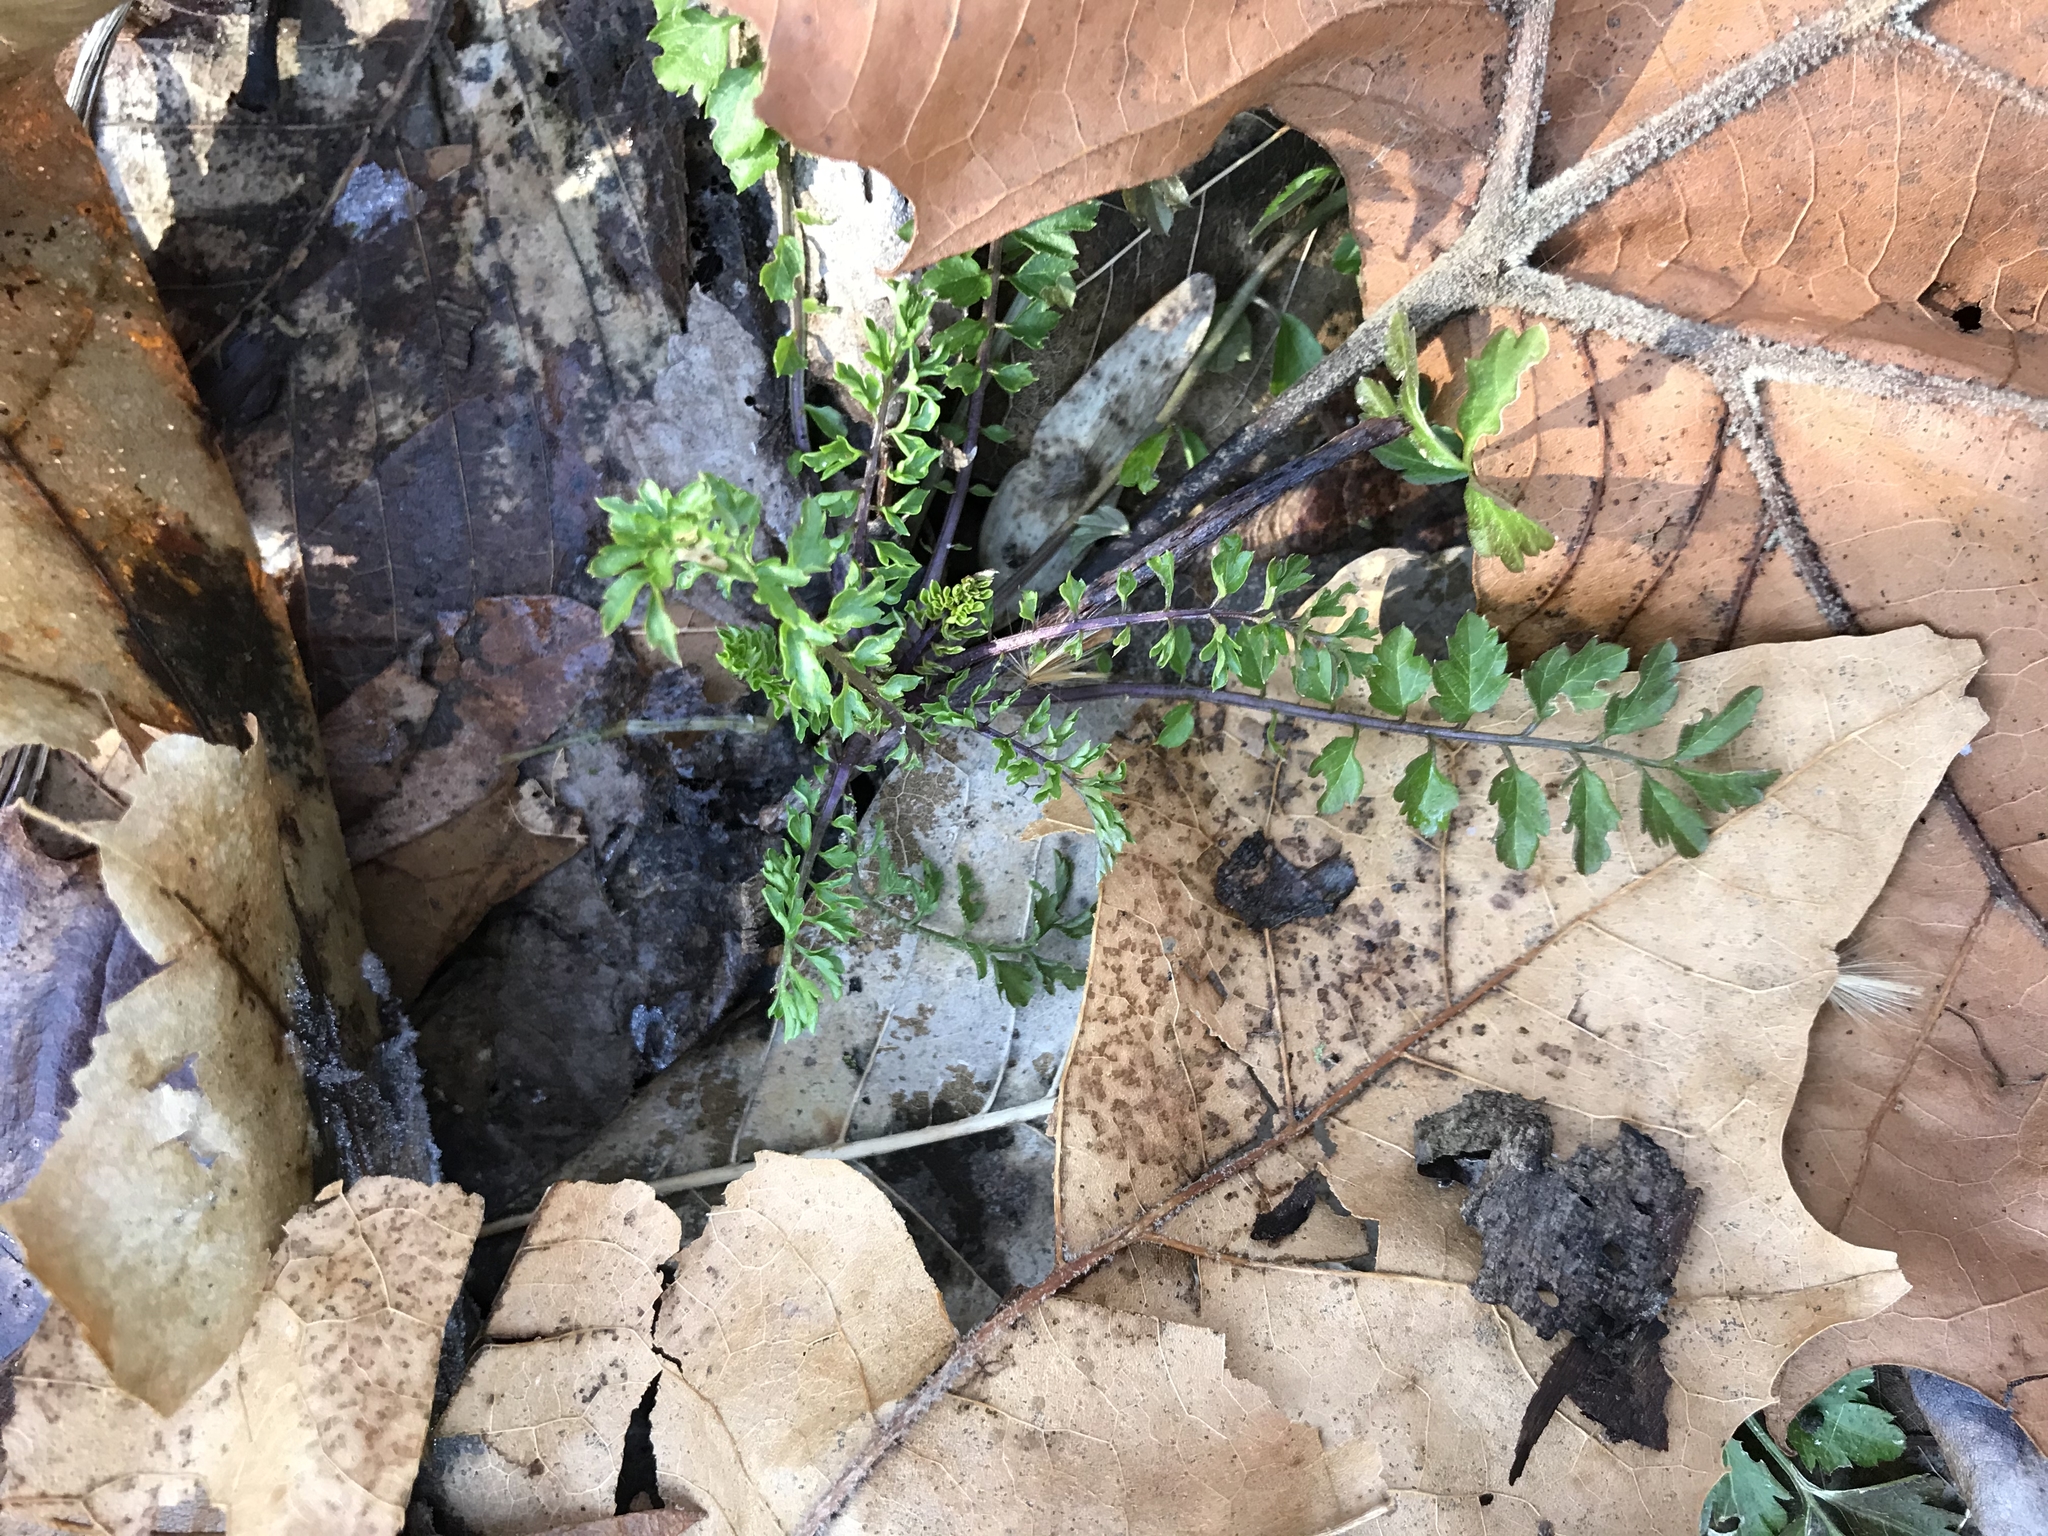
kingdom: Plantae
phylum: Tracheophyta
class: Magnoliopsida
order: Brassicales
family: Brassicaceae
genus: Cardamine
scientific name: Cardamine impatiens
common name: Narrow-leaved bitter-cress
